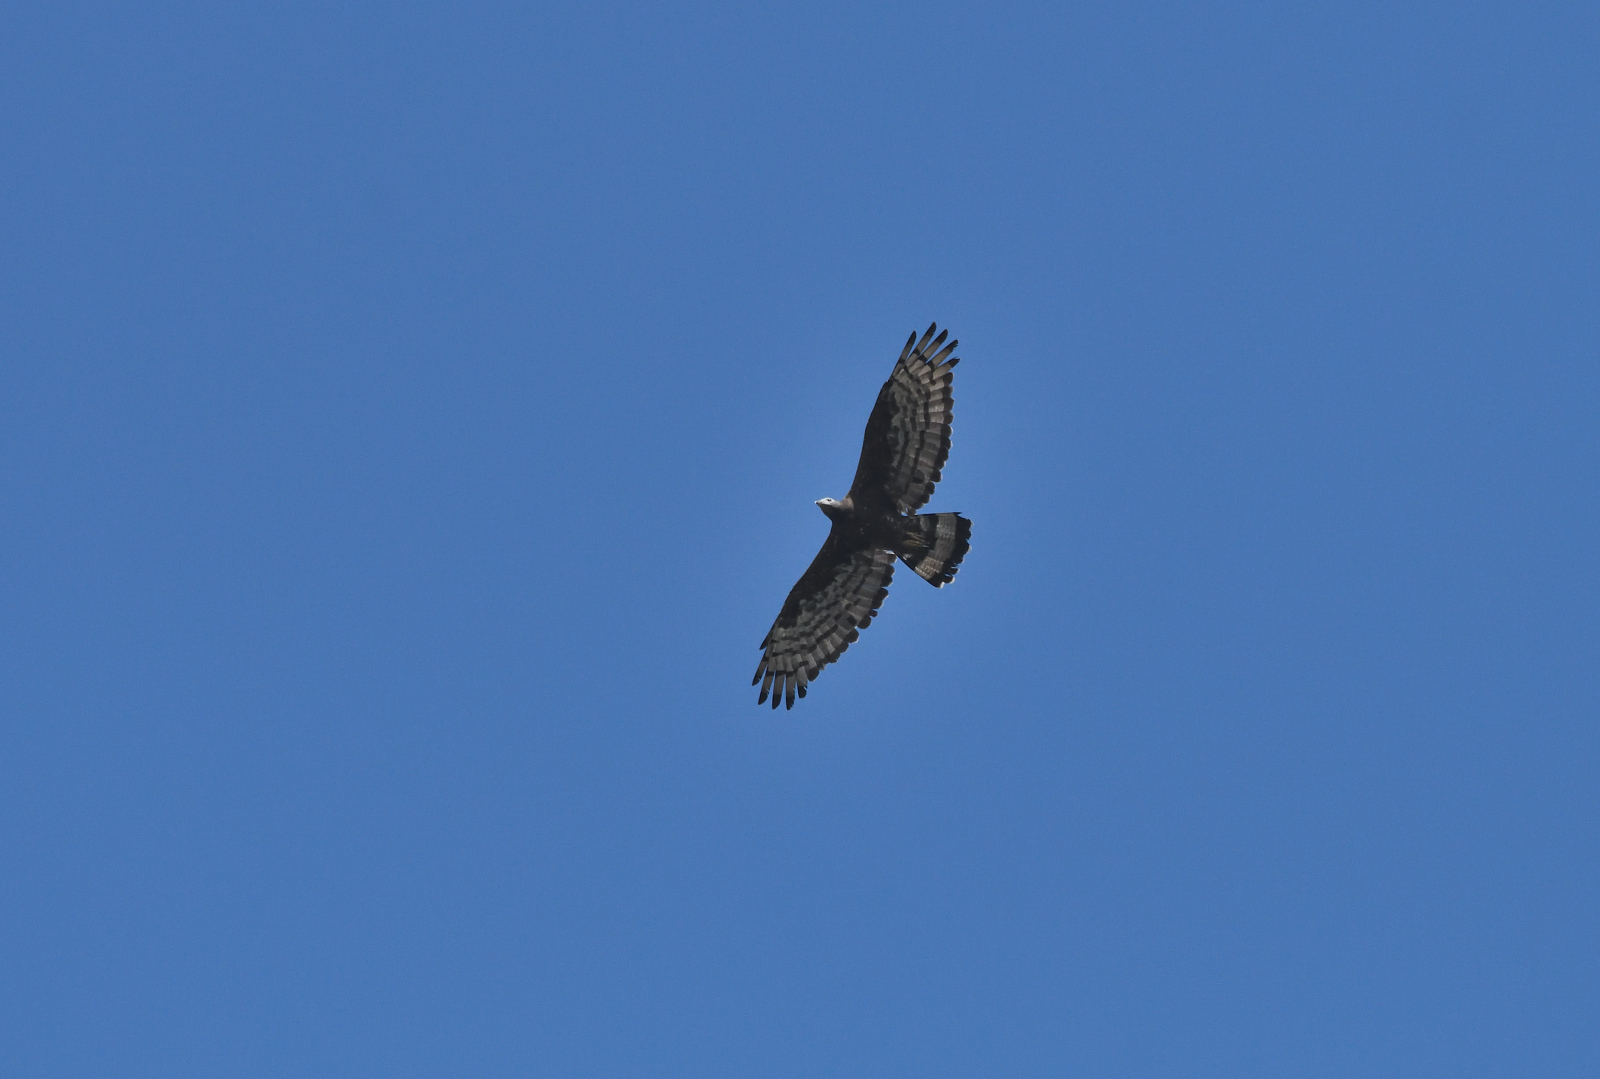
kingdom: Animalia
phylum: Chordata
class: Aves
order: Accipitriformes
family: Accipitridae
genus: Pernis
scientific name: Pernis ptilorhynchus
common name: Crested honey buzzard
